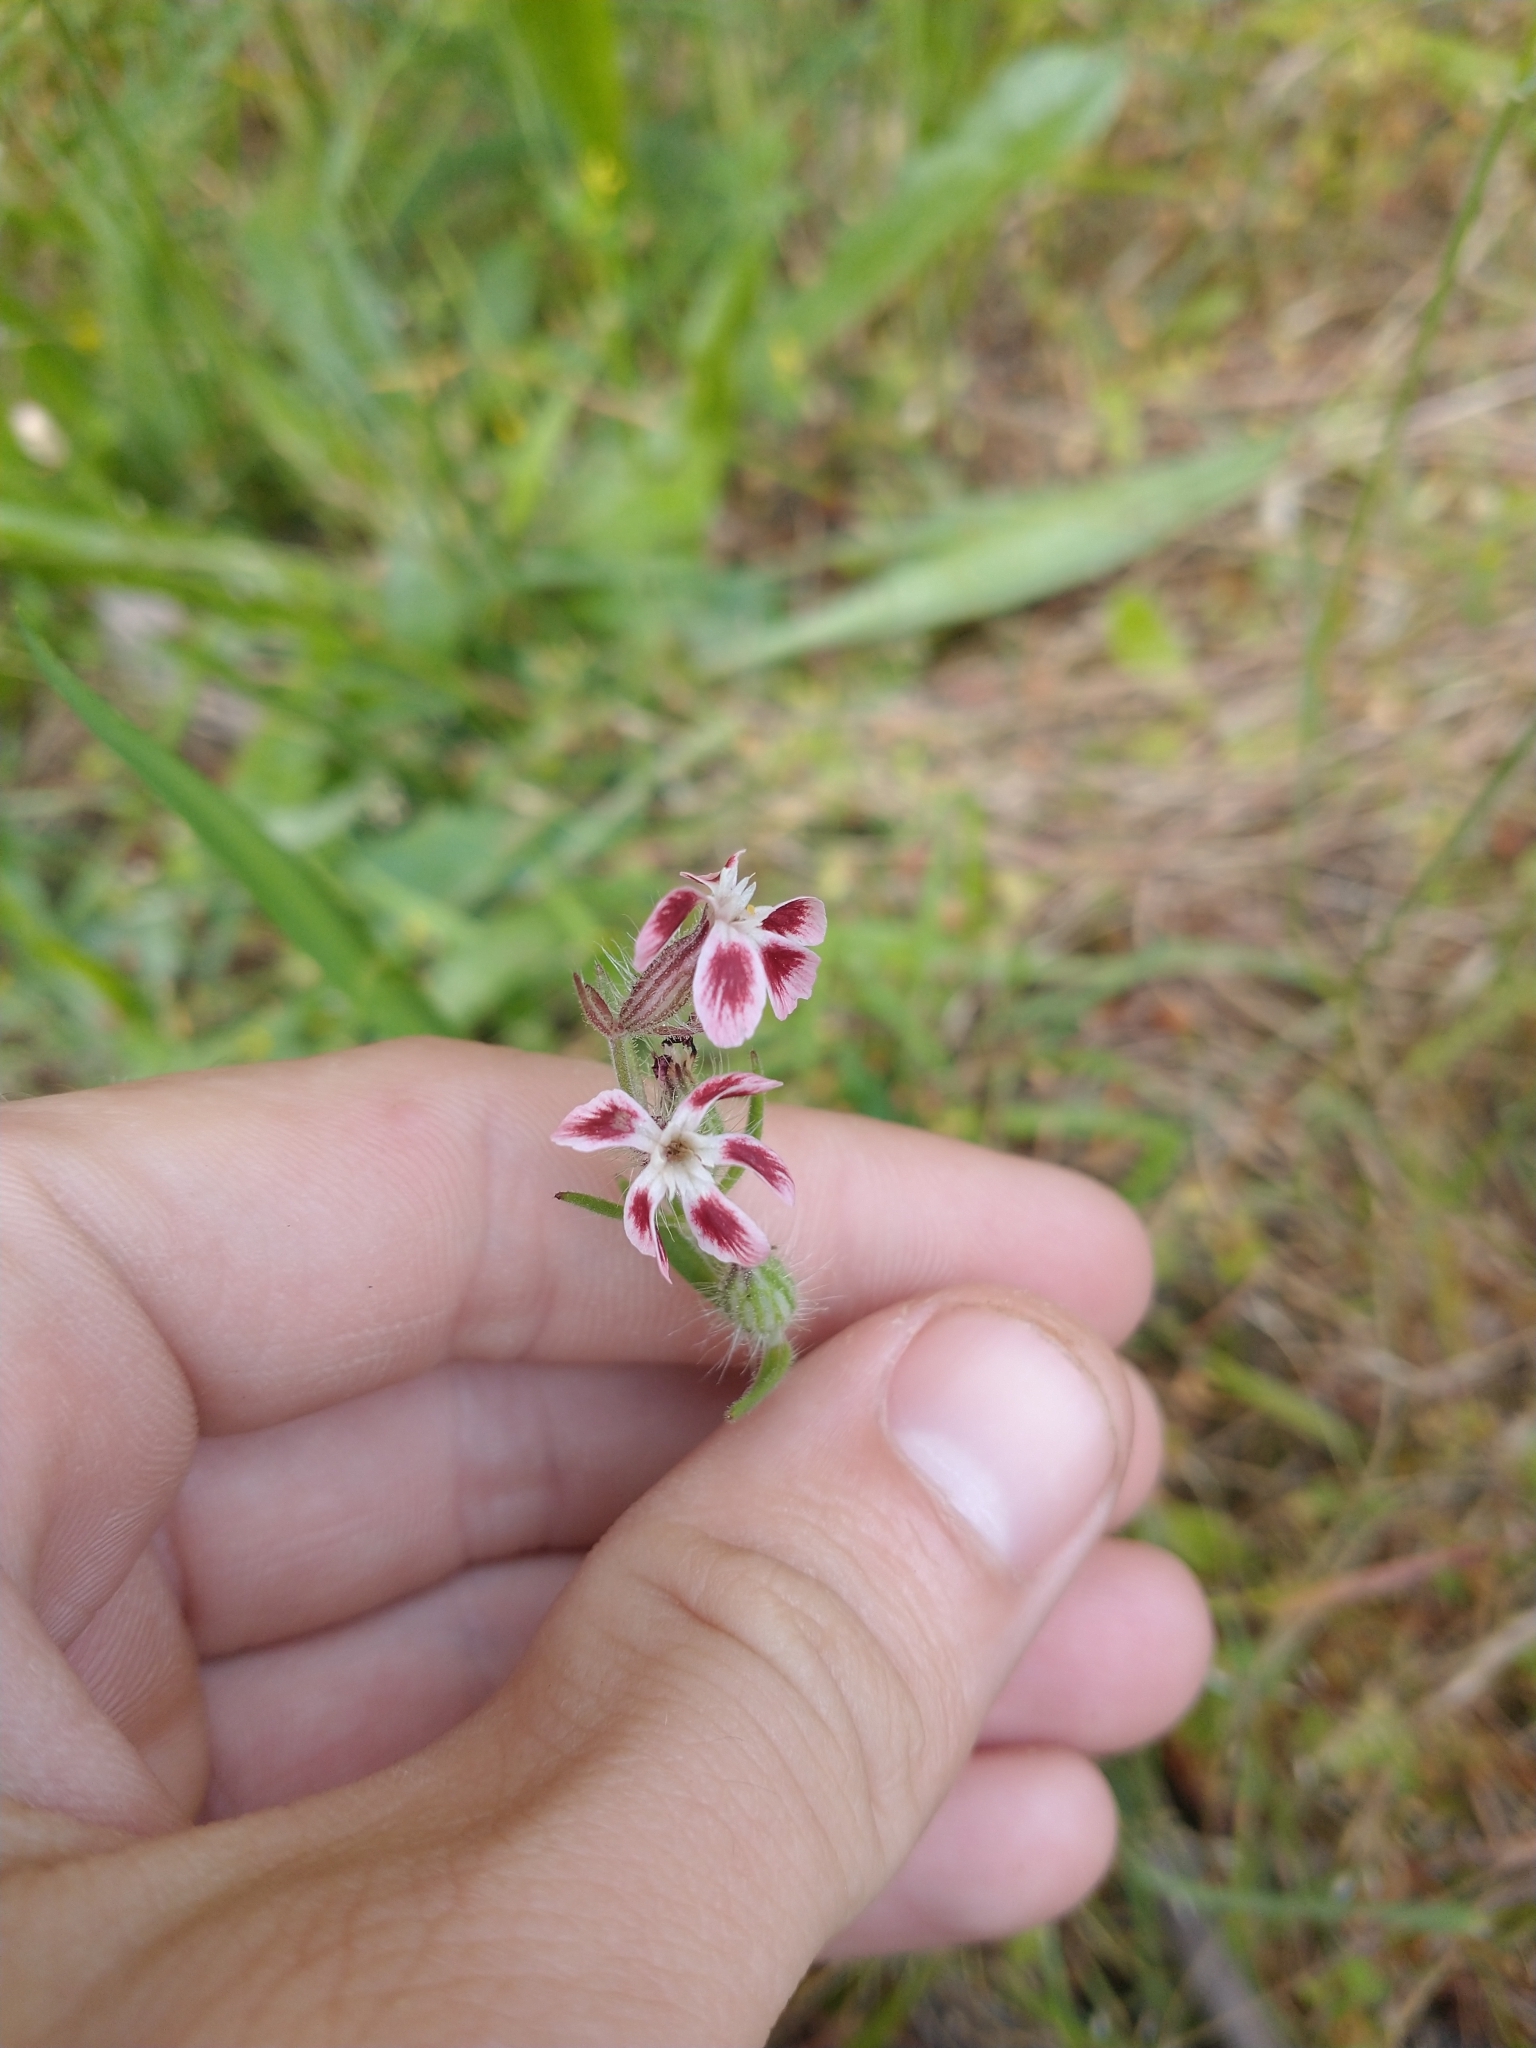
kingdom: Plantae
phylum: Tracheophyta
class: Magnoliopsida
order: Caryophyllales
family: Caryophyllaceae
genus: Silene
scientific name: Silene gallica
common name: Small-flowered catchfly
